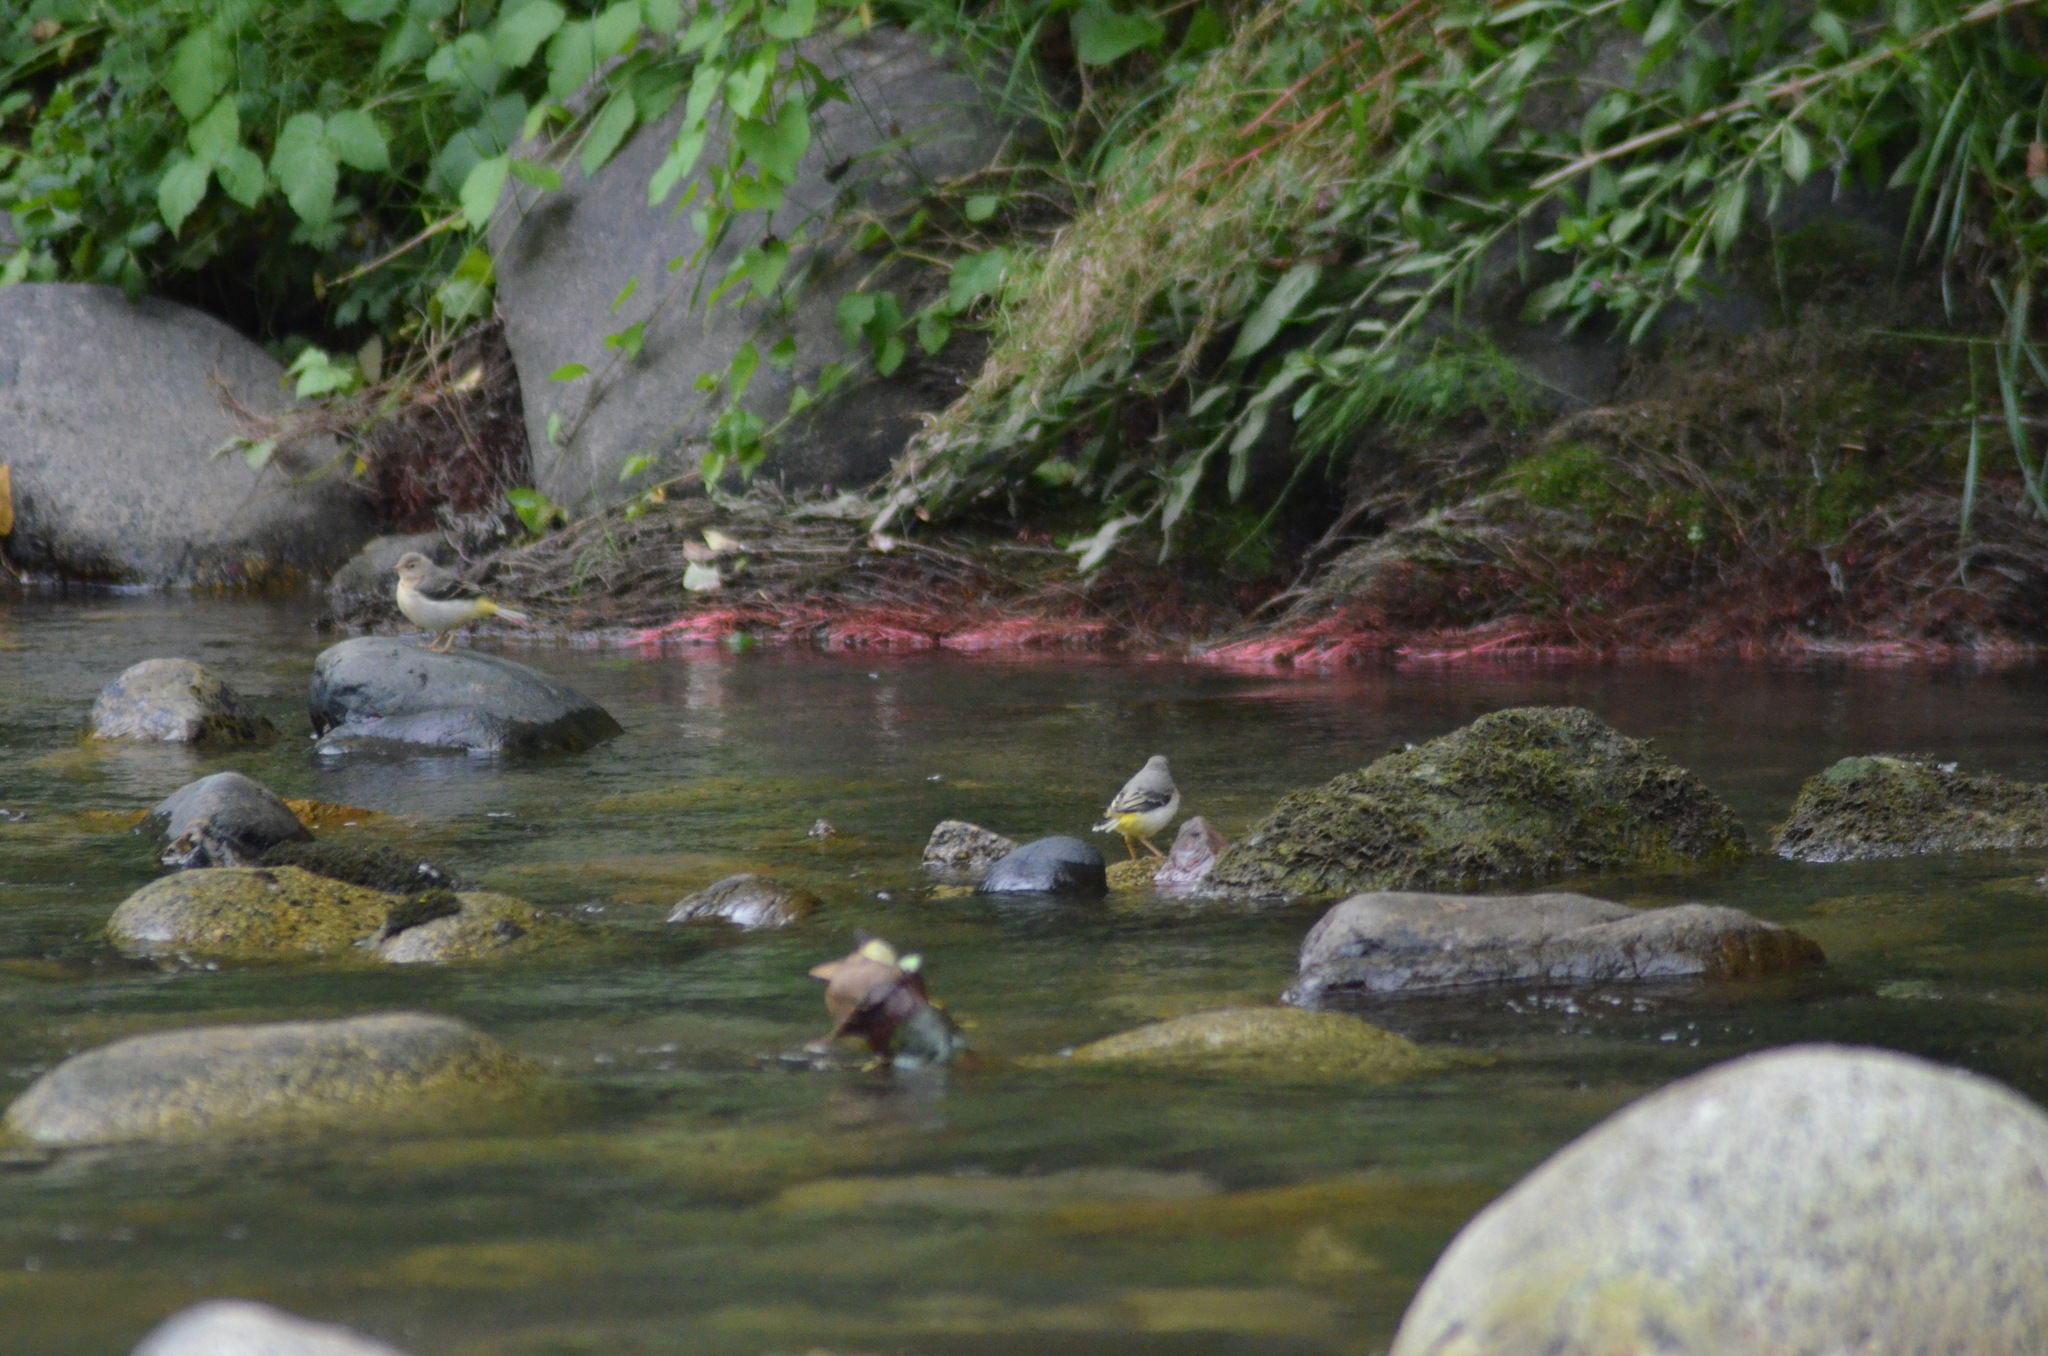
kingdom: Animalia
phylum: Chordata
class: Aves
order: Passeriformes
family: Motacillidae
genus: Motacilla
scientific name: Motacilla cinerea
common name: Grey wagtail
